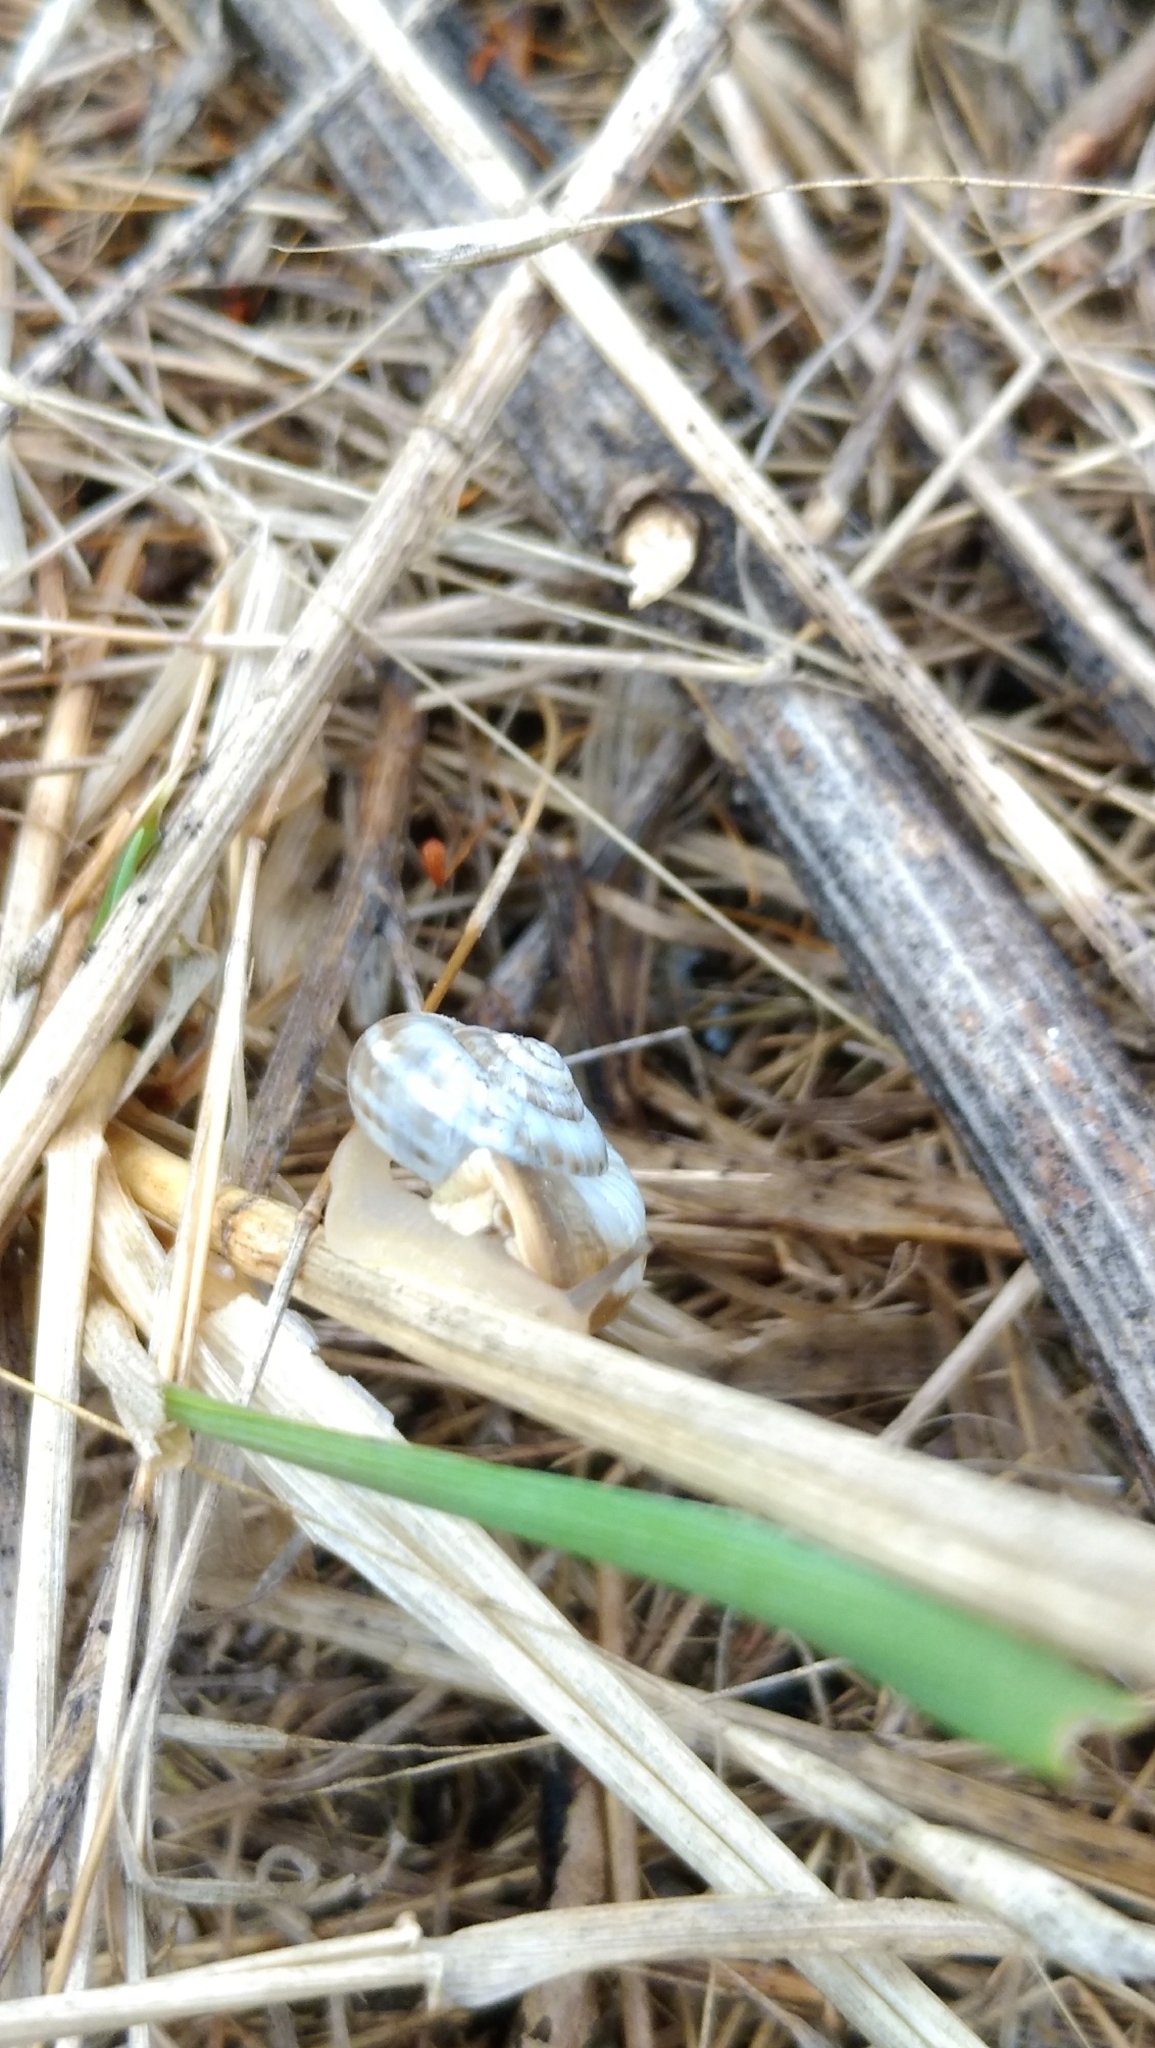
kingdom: Animalia
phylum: Mollusca
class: Gastropoda
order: Stylommatophora
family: Geomitridae
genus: Xeropicta
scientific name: Xeropicta derbentina
